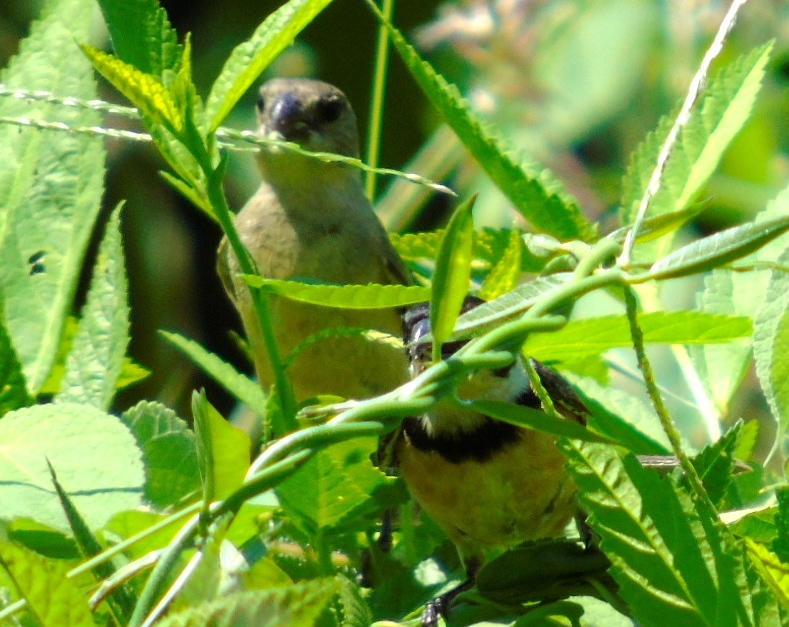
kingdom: Animalia
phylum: Chordata
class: Aves
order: Passeriformes
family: Thraupidae
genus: Sporophila
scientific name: Sporophila torqueola
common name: White-collared seedeater
